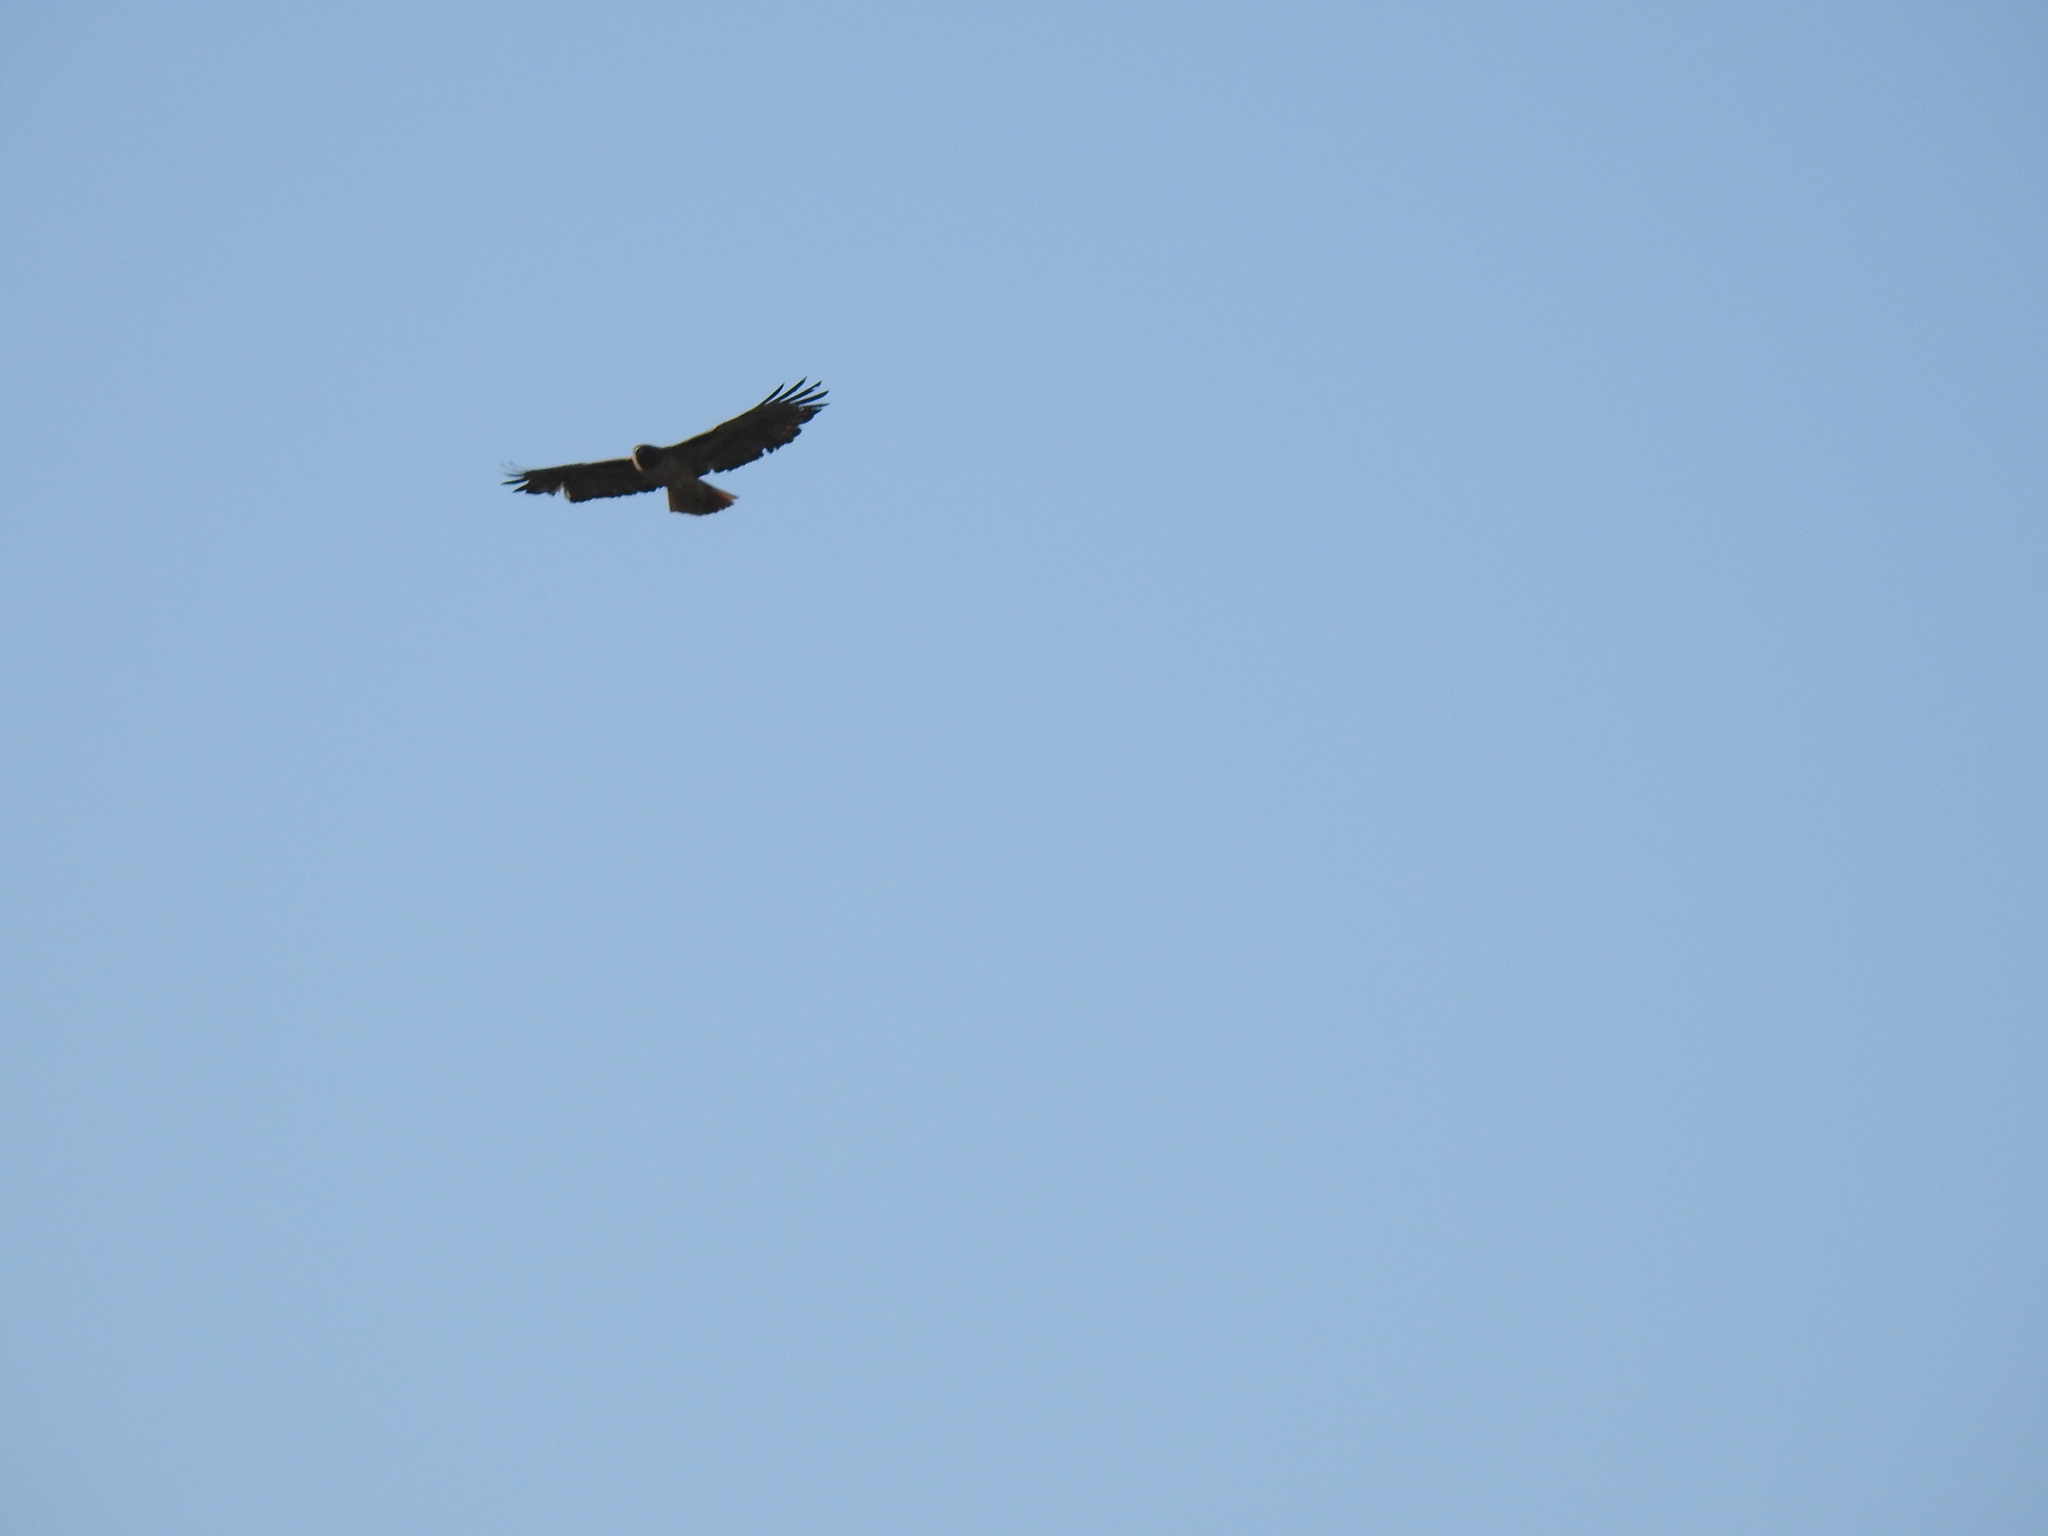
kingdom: Animalia
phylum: Chordata
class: Aves
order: Accipitriformes
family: Accipitridae
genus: Buteo
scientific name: Buteo jamaicensis
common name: Red-tailed hawk
